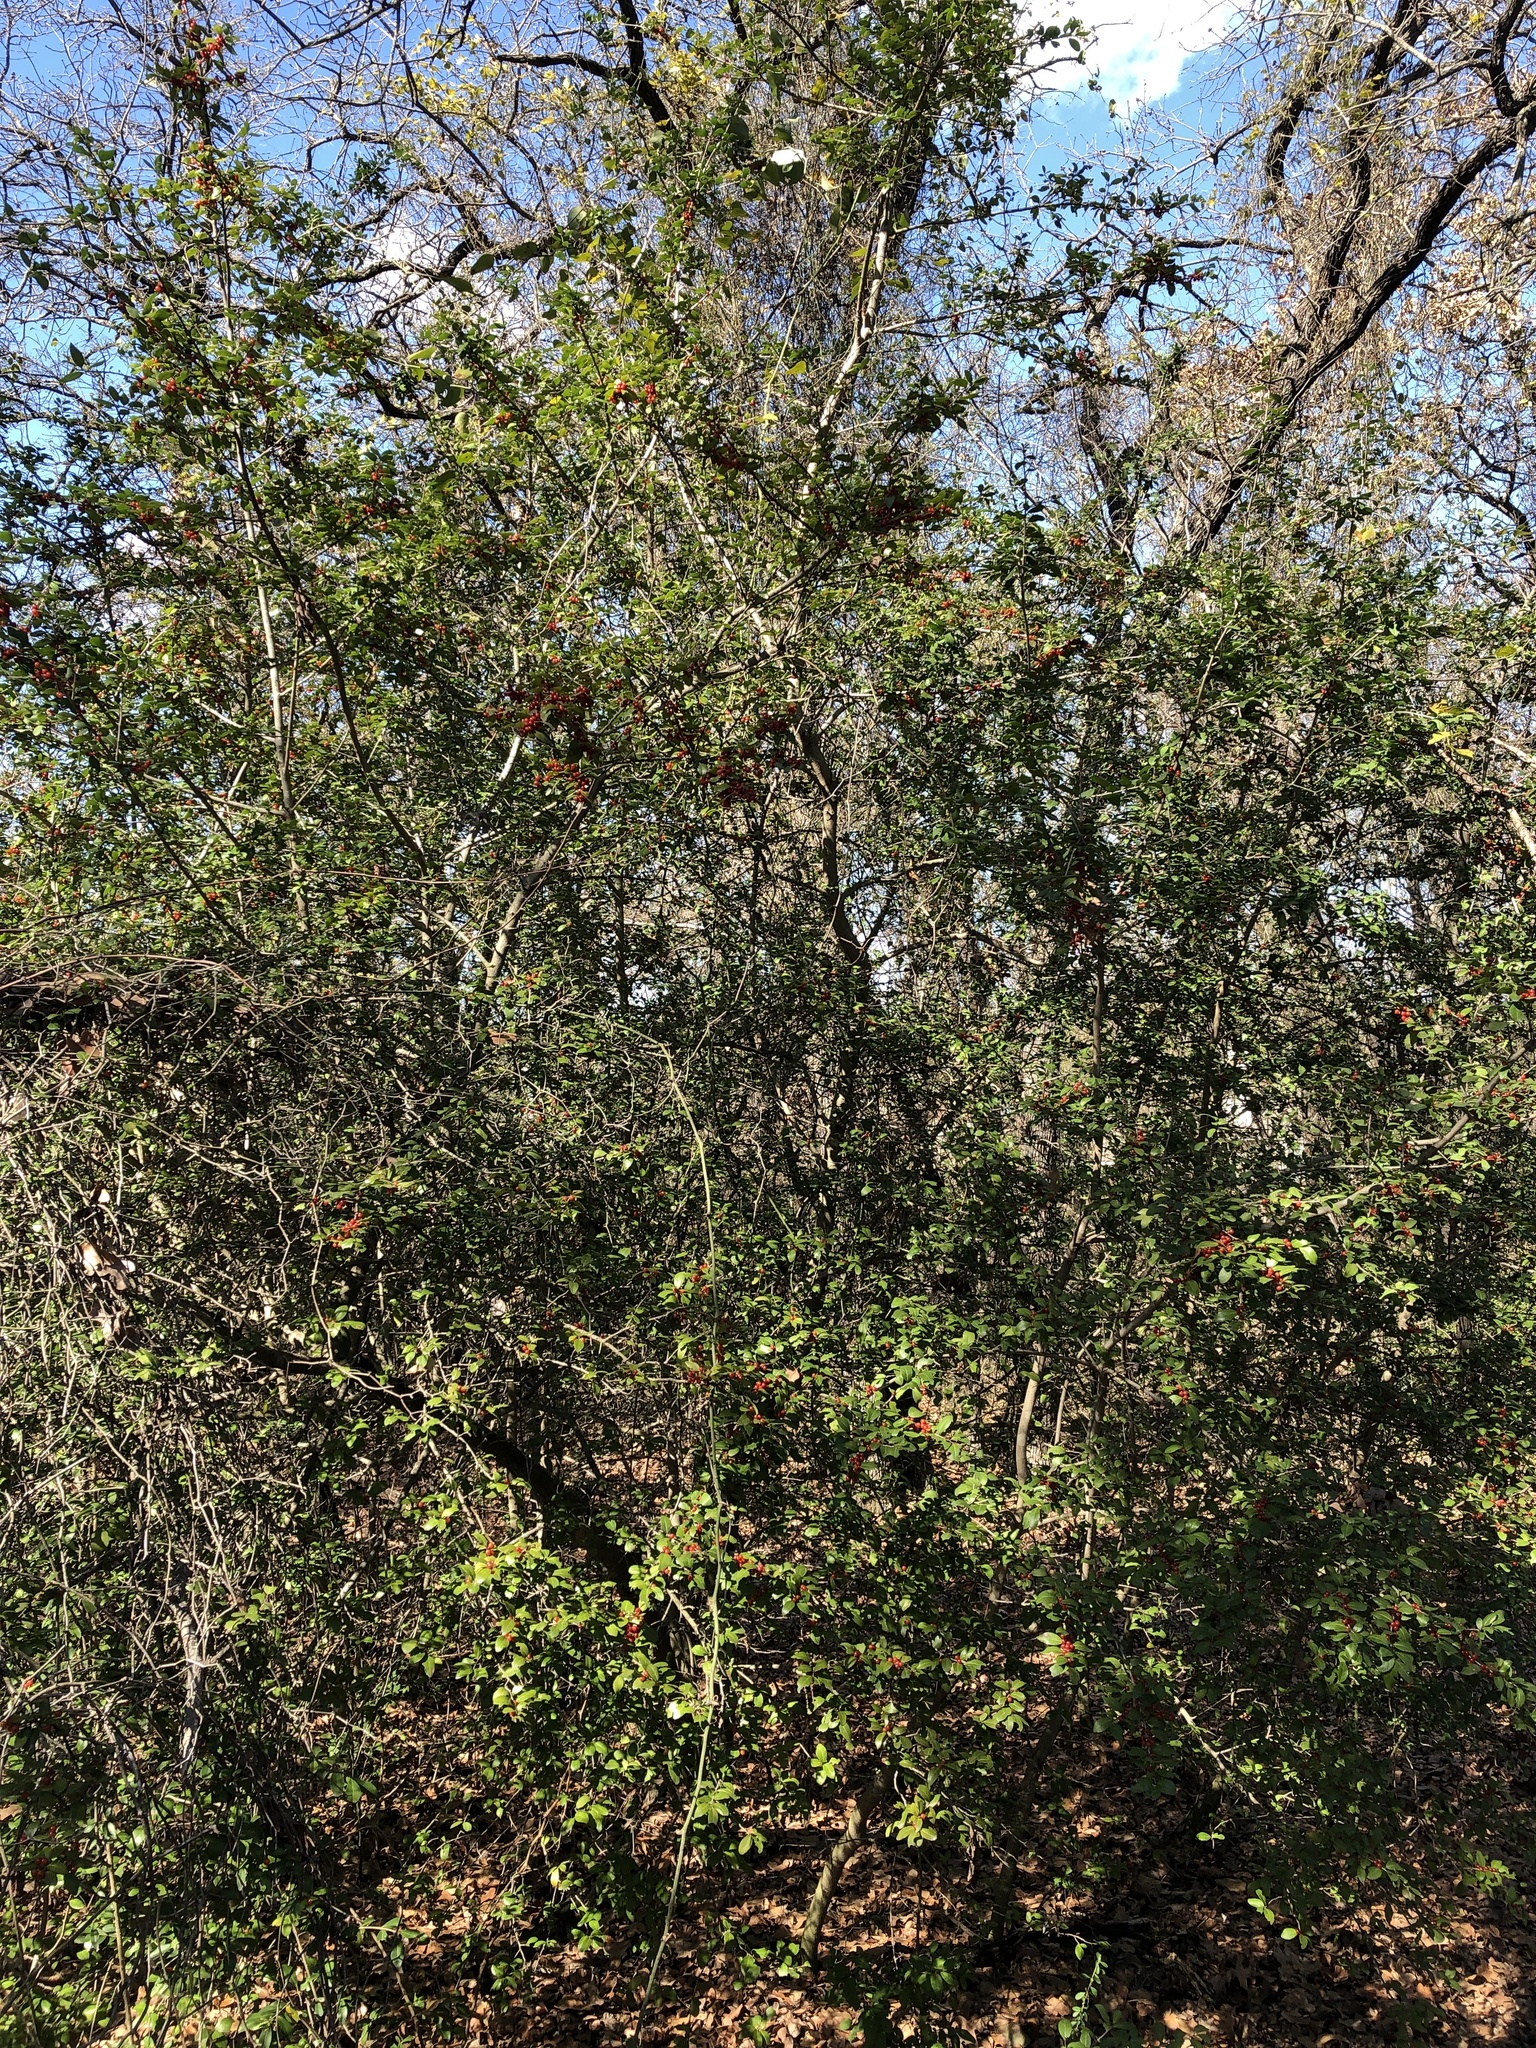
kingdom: Plantae
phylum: Tracheophyta
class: Magnoliopsida
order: Aquifoliales
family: Aquifoliaceae
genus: Ilex
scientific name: Ilex vomitoria
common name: Yaupon holly
